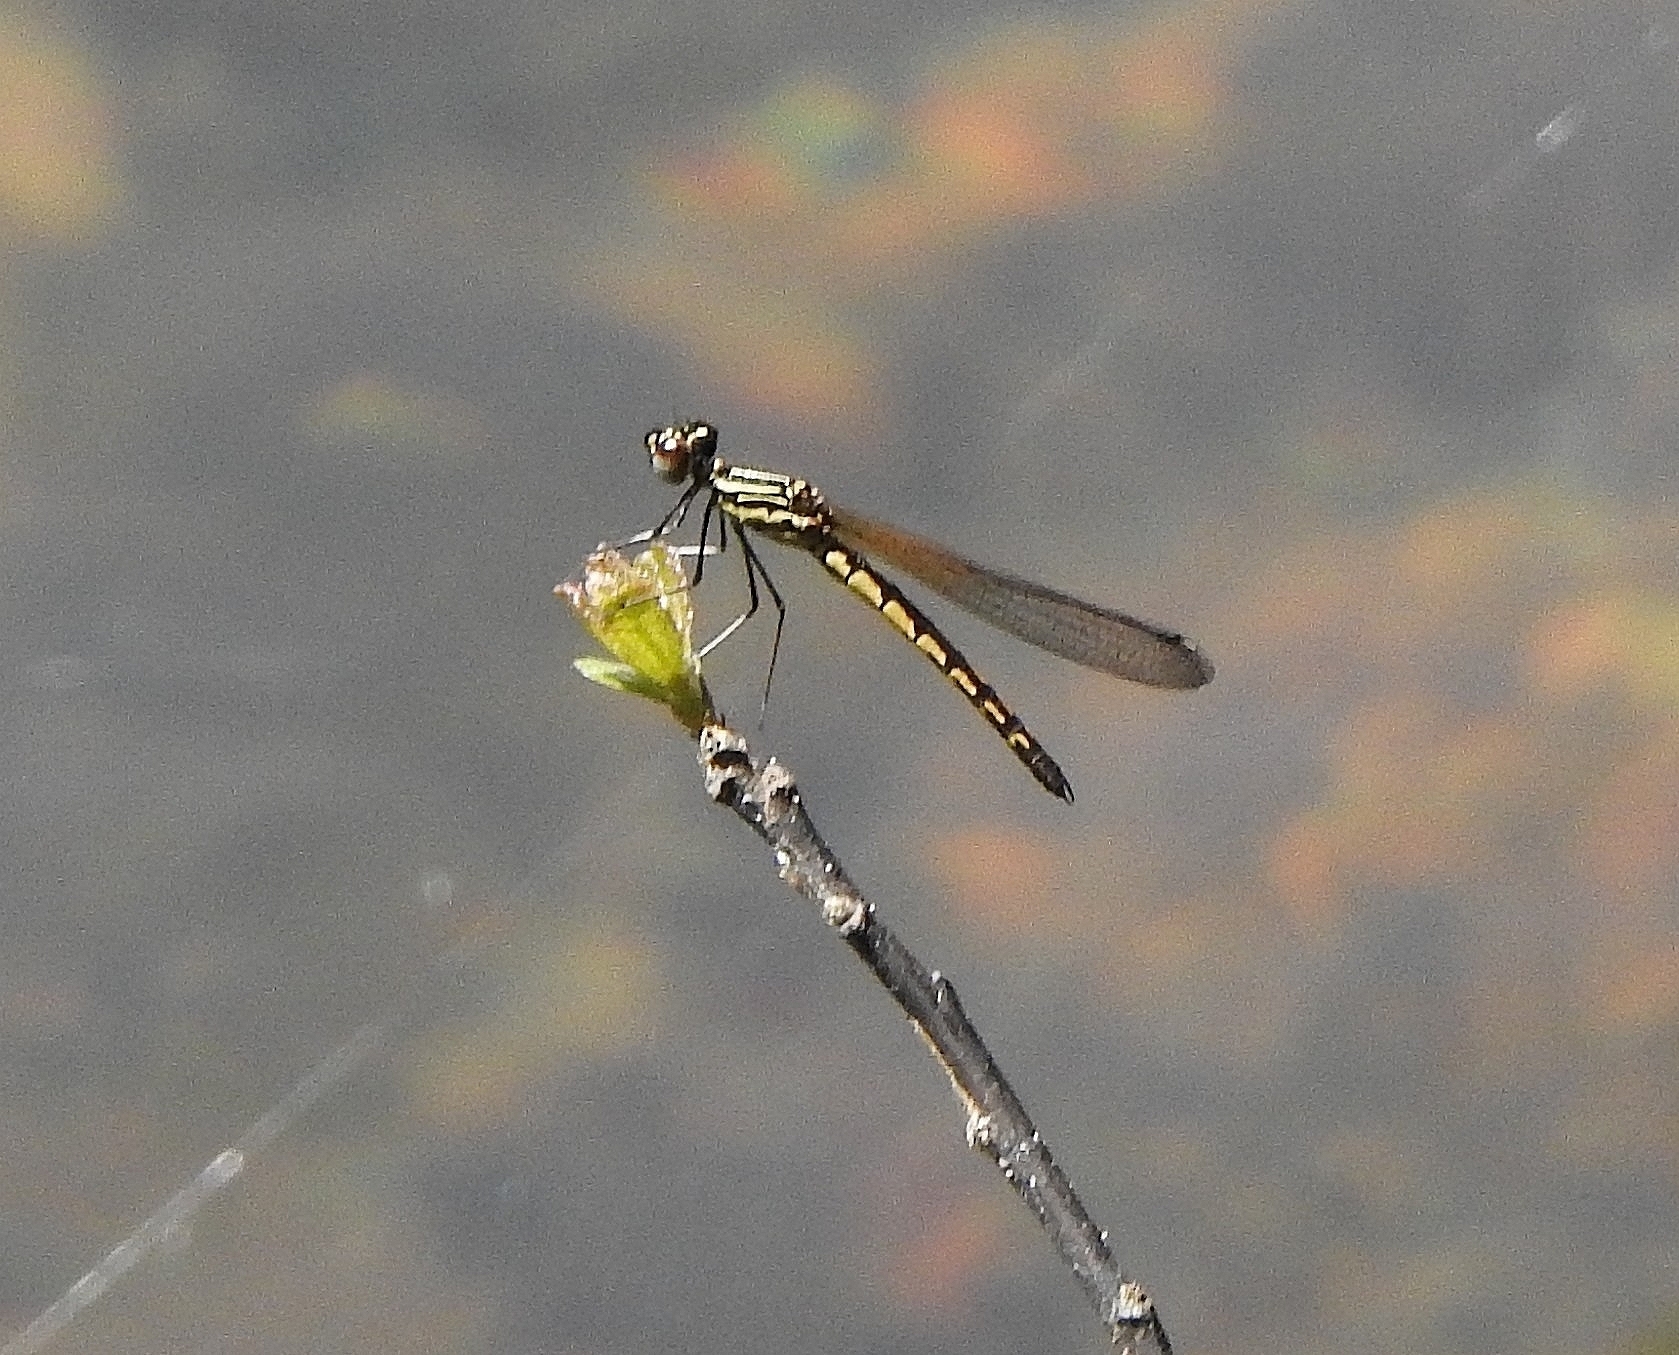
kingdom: Animalia
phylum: Arthropoda
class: Insecta
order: Odonata
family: Chlorocyphidae
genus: Libellago
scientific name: Libellago indica
